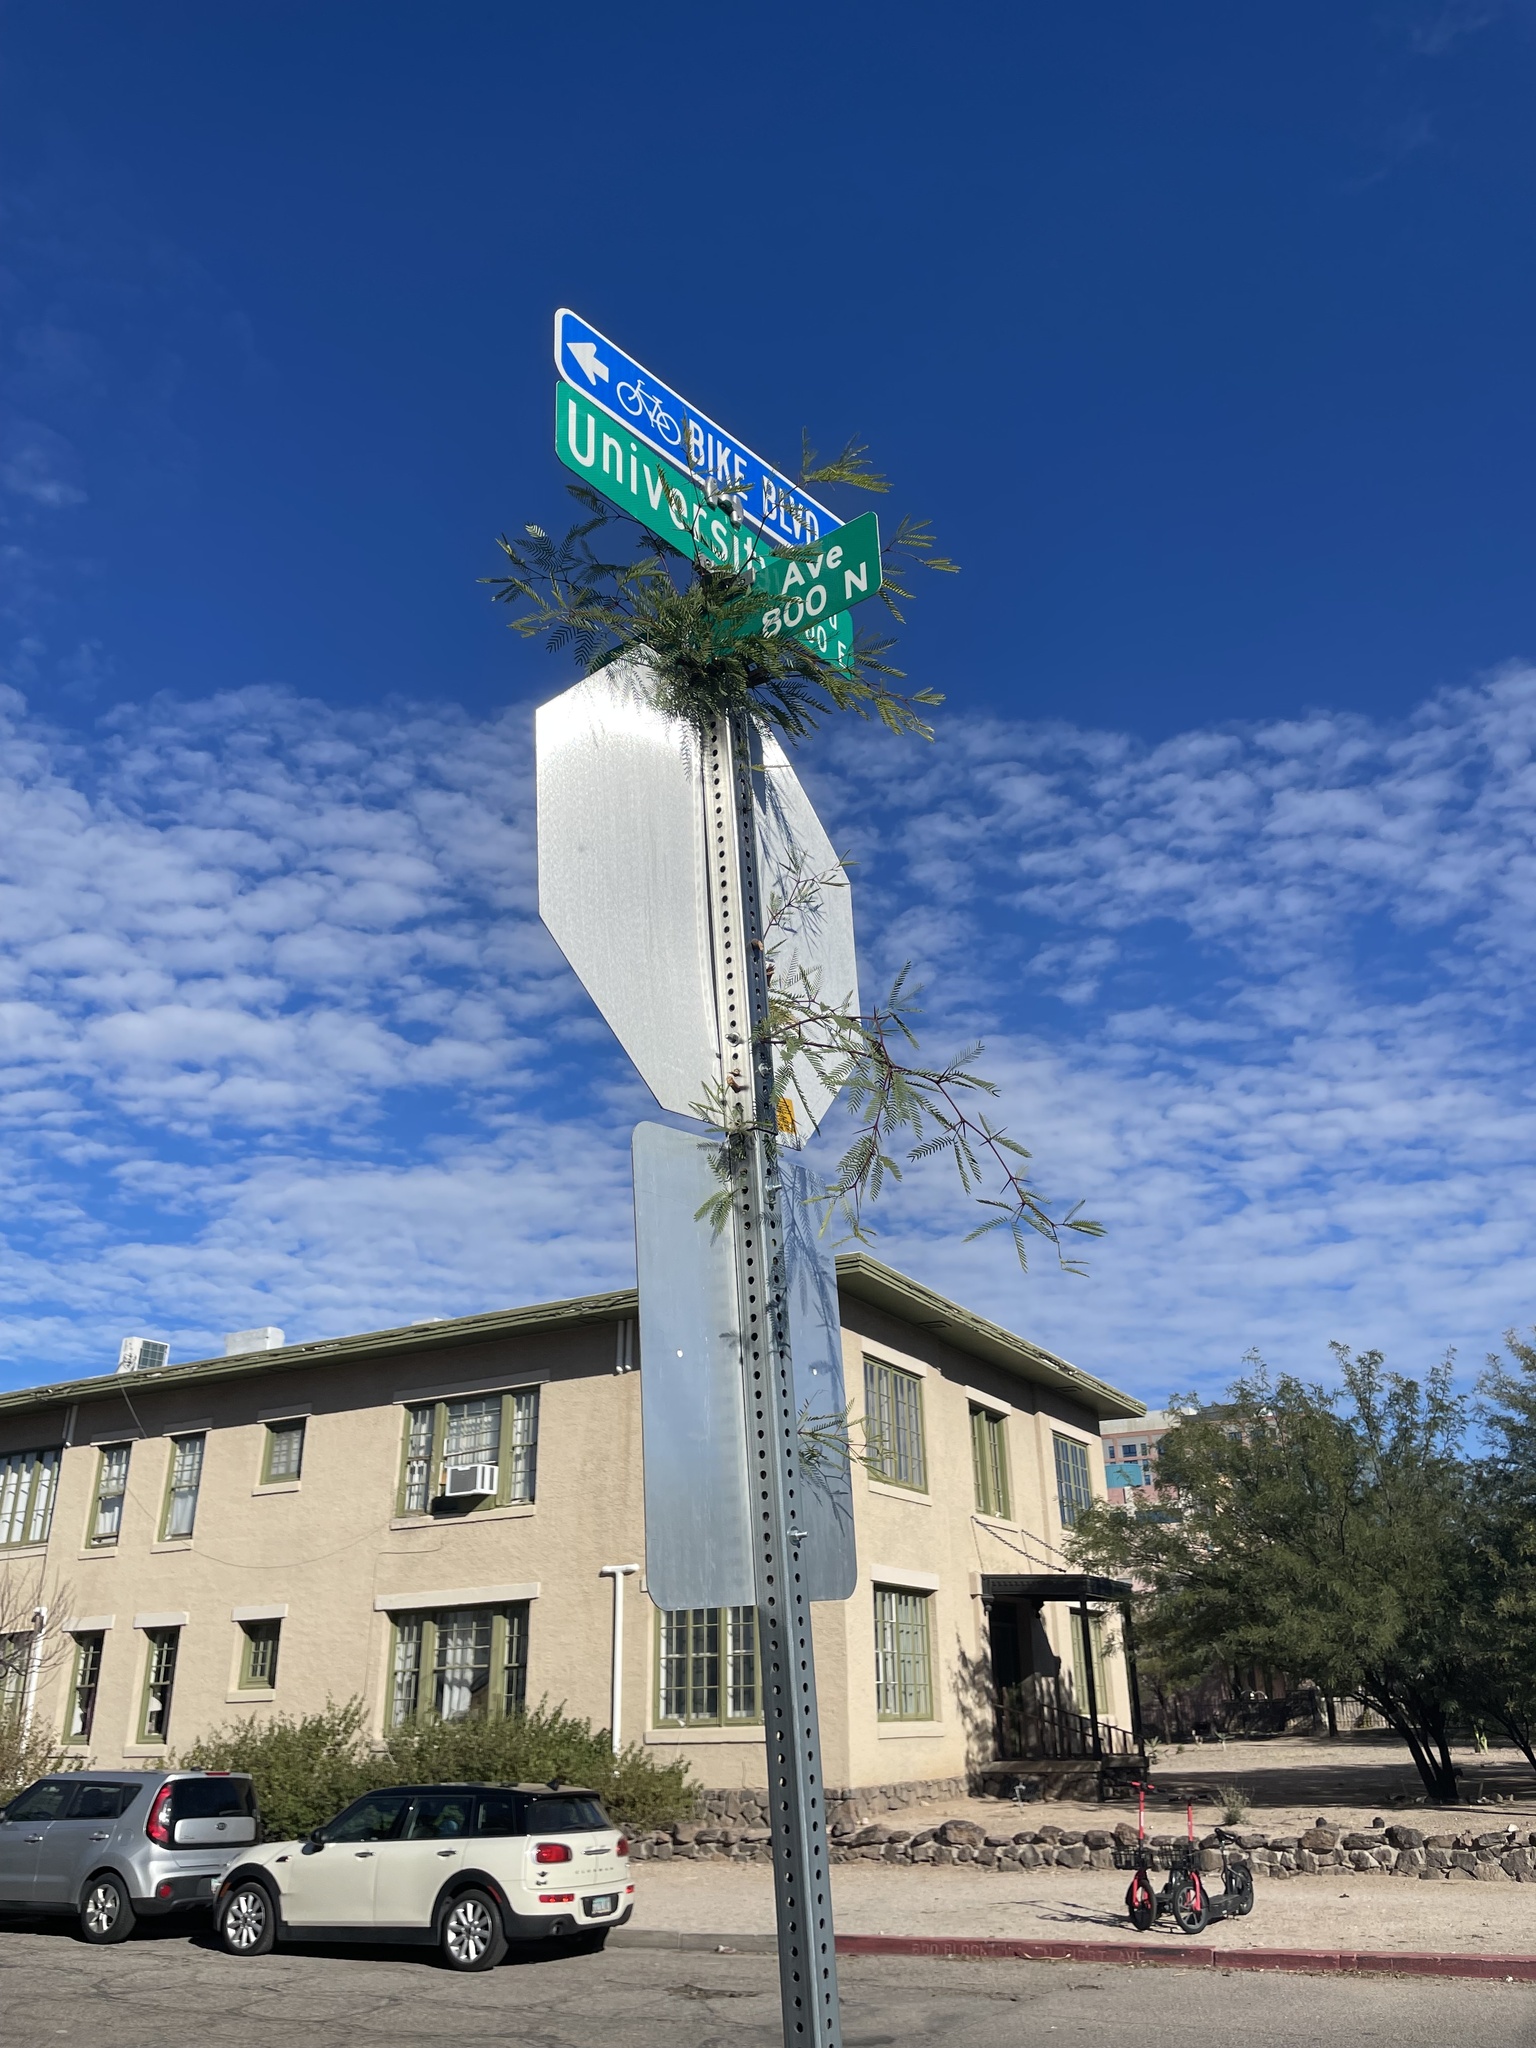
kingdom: Plantae
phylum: Tracheophyta
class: Magnoliopsida
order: Fabales
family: Fabaceae
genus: Prosopis
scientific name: Prosopis velutina
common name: Velvet mesquite
